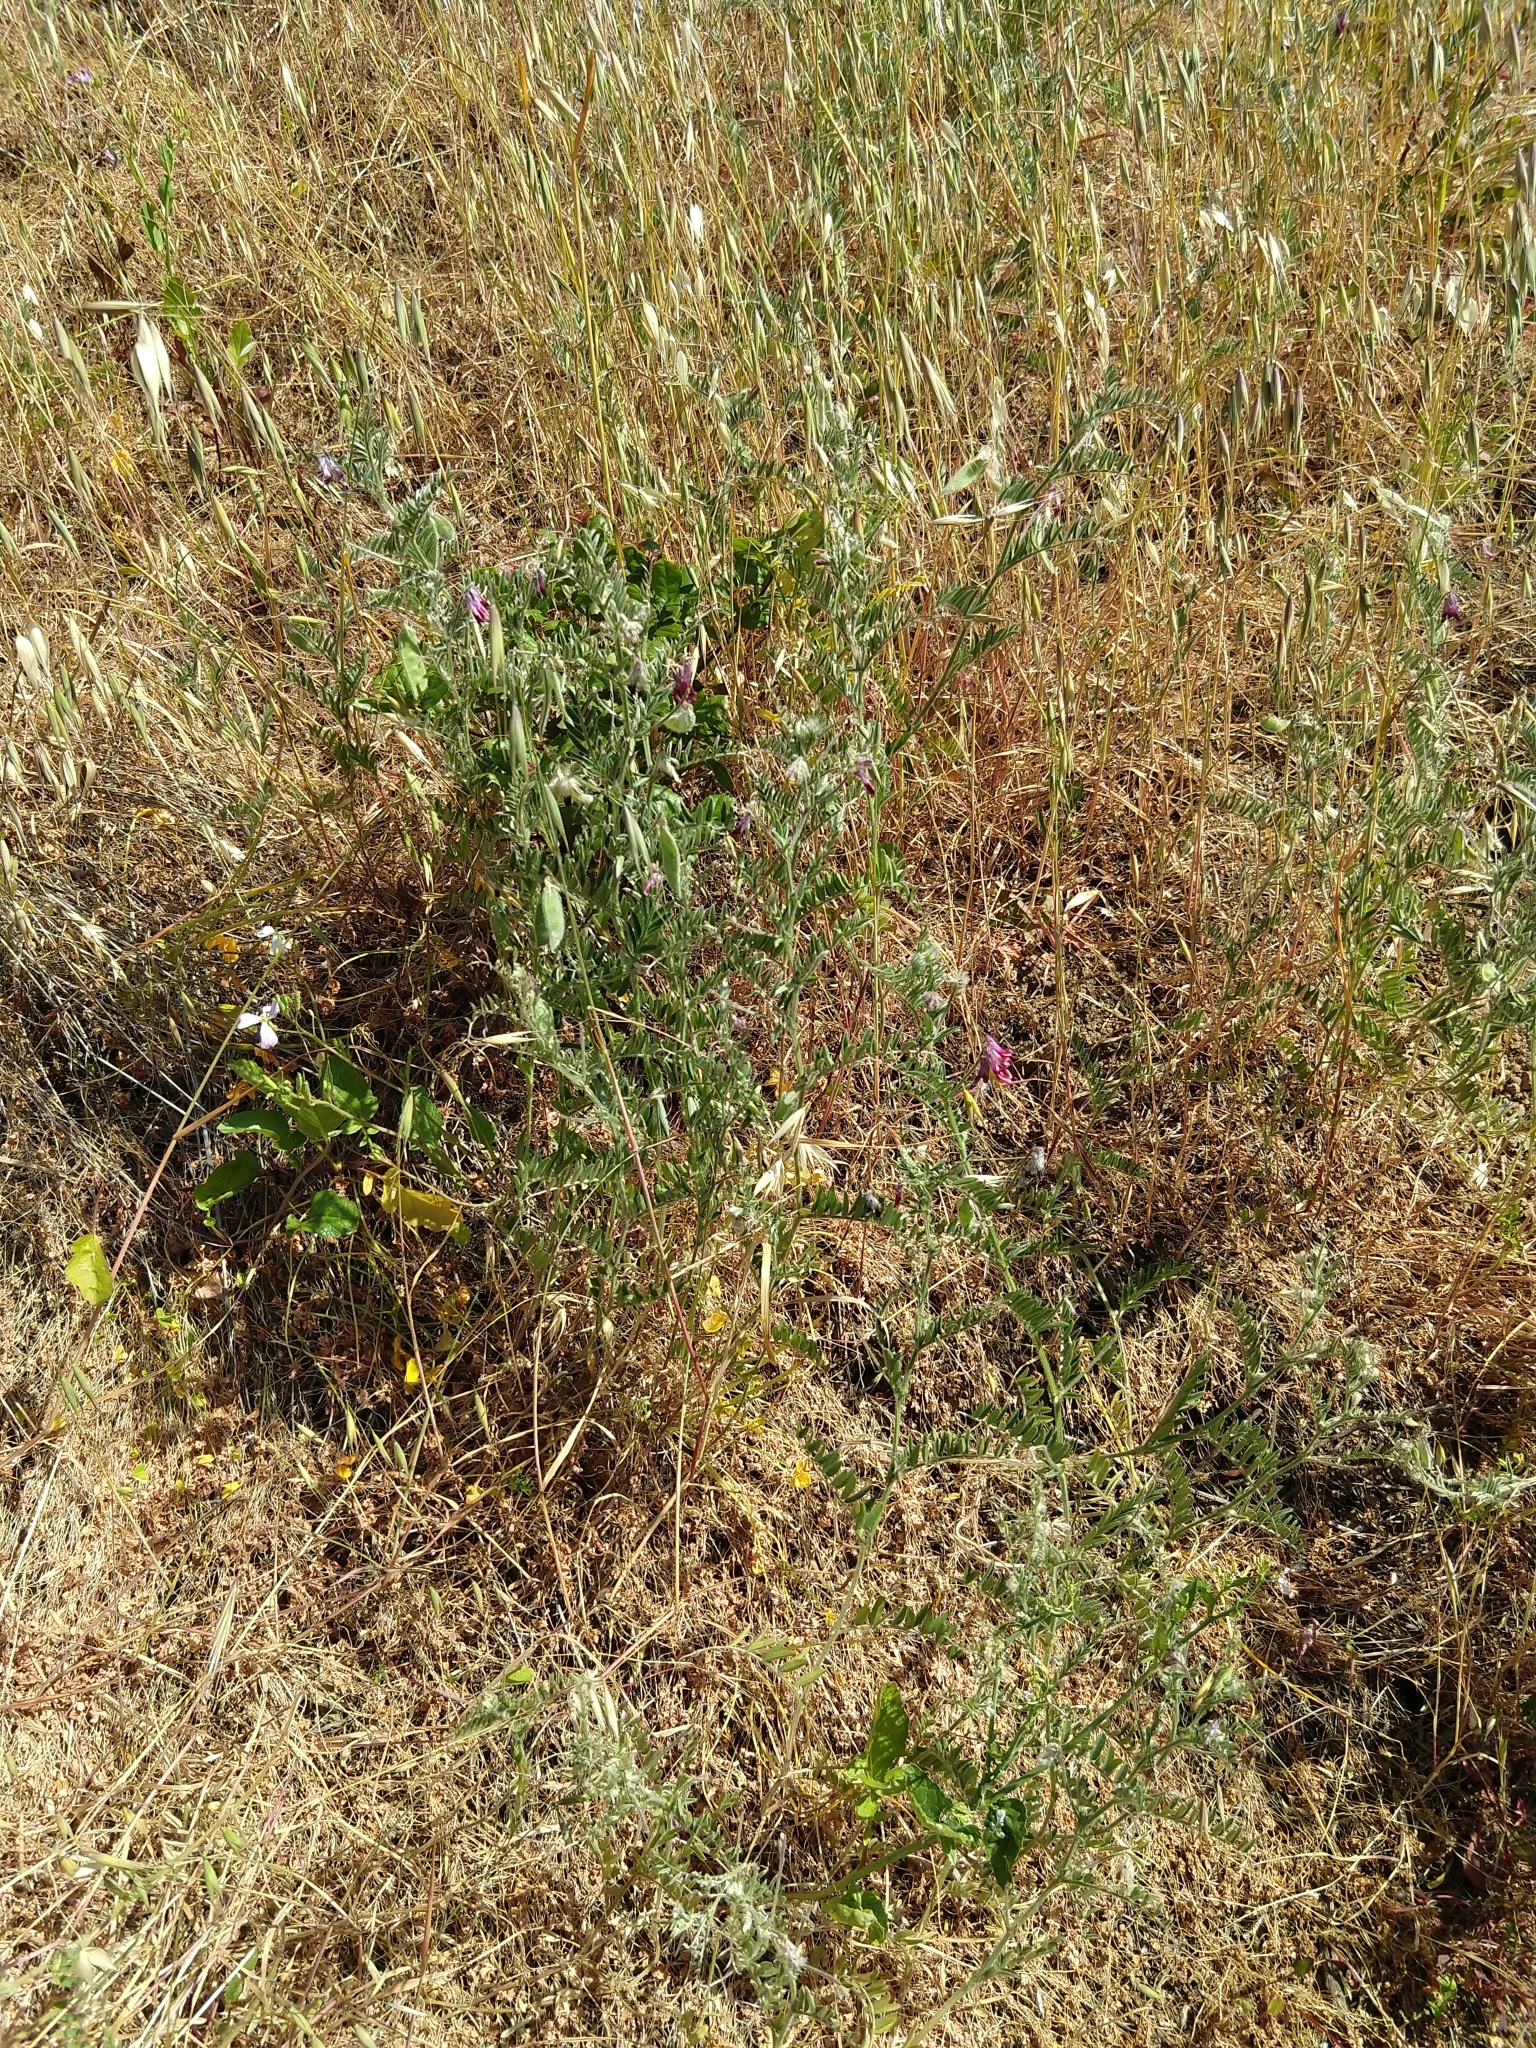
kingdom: Plantae
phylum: Tracheophyta
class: Magnoliopsida
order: Fabales
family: Fabaceae
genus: Vicia
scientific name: Vicia benghalensis
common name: Purple vetch
